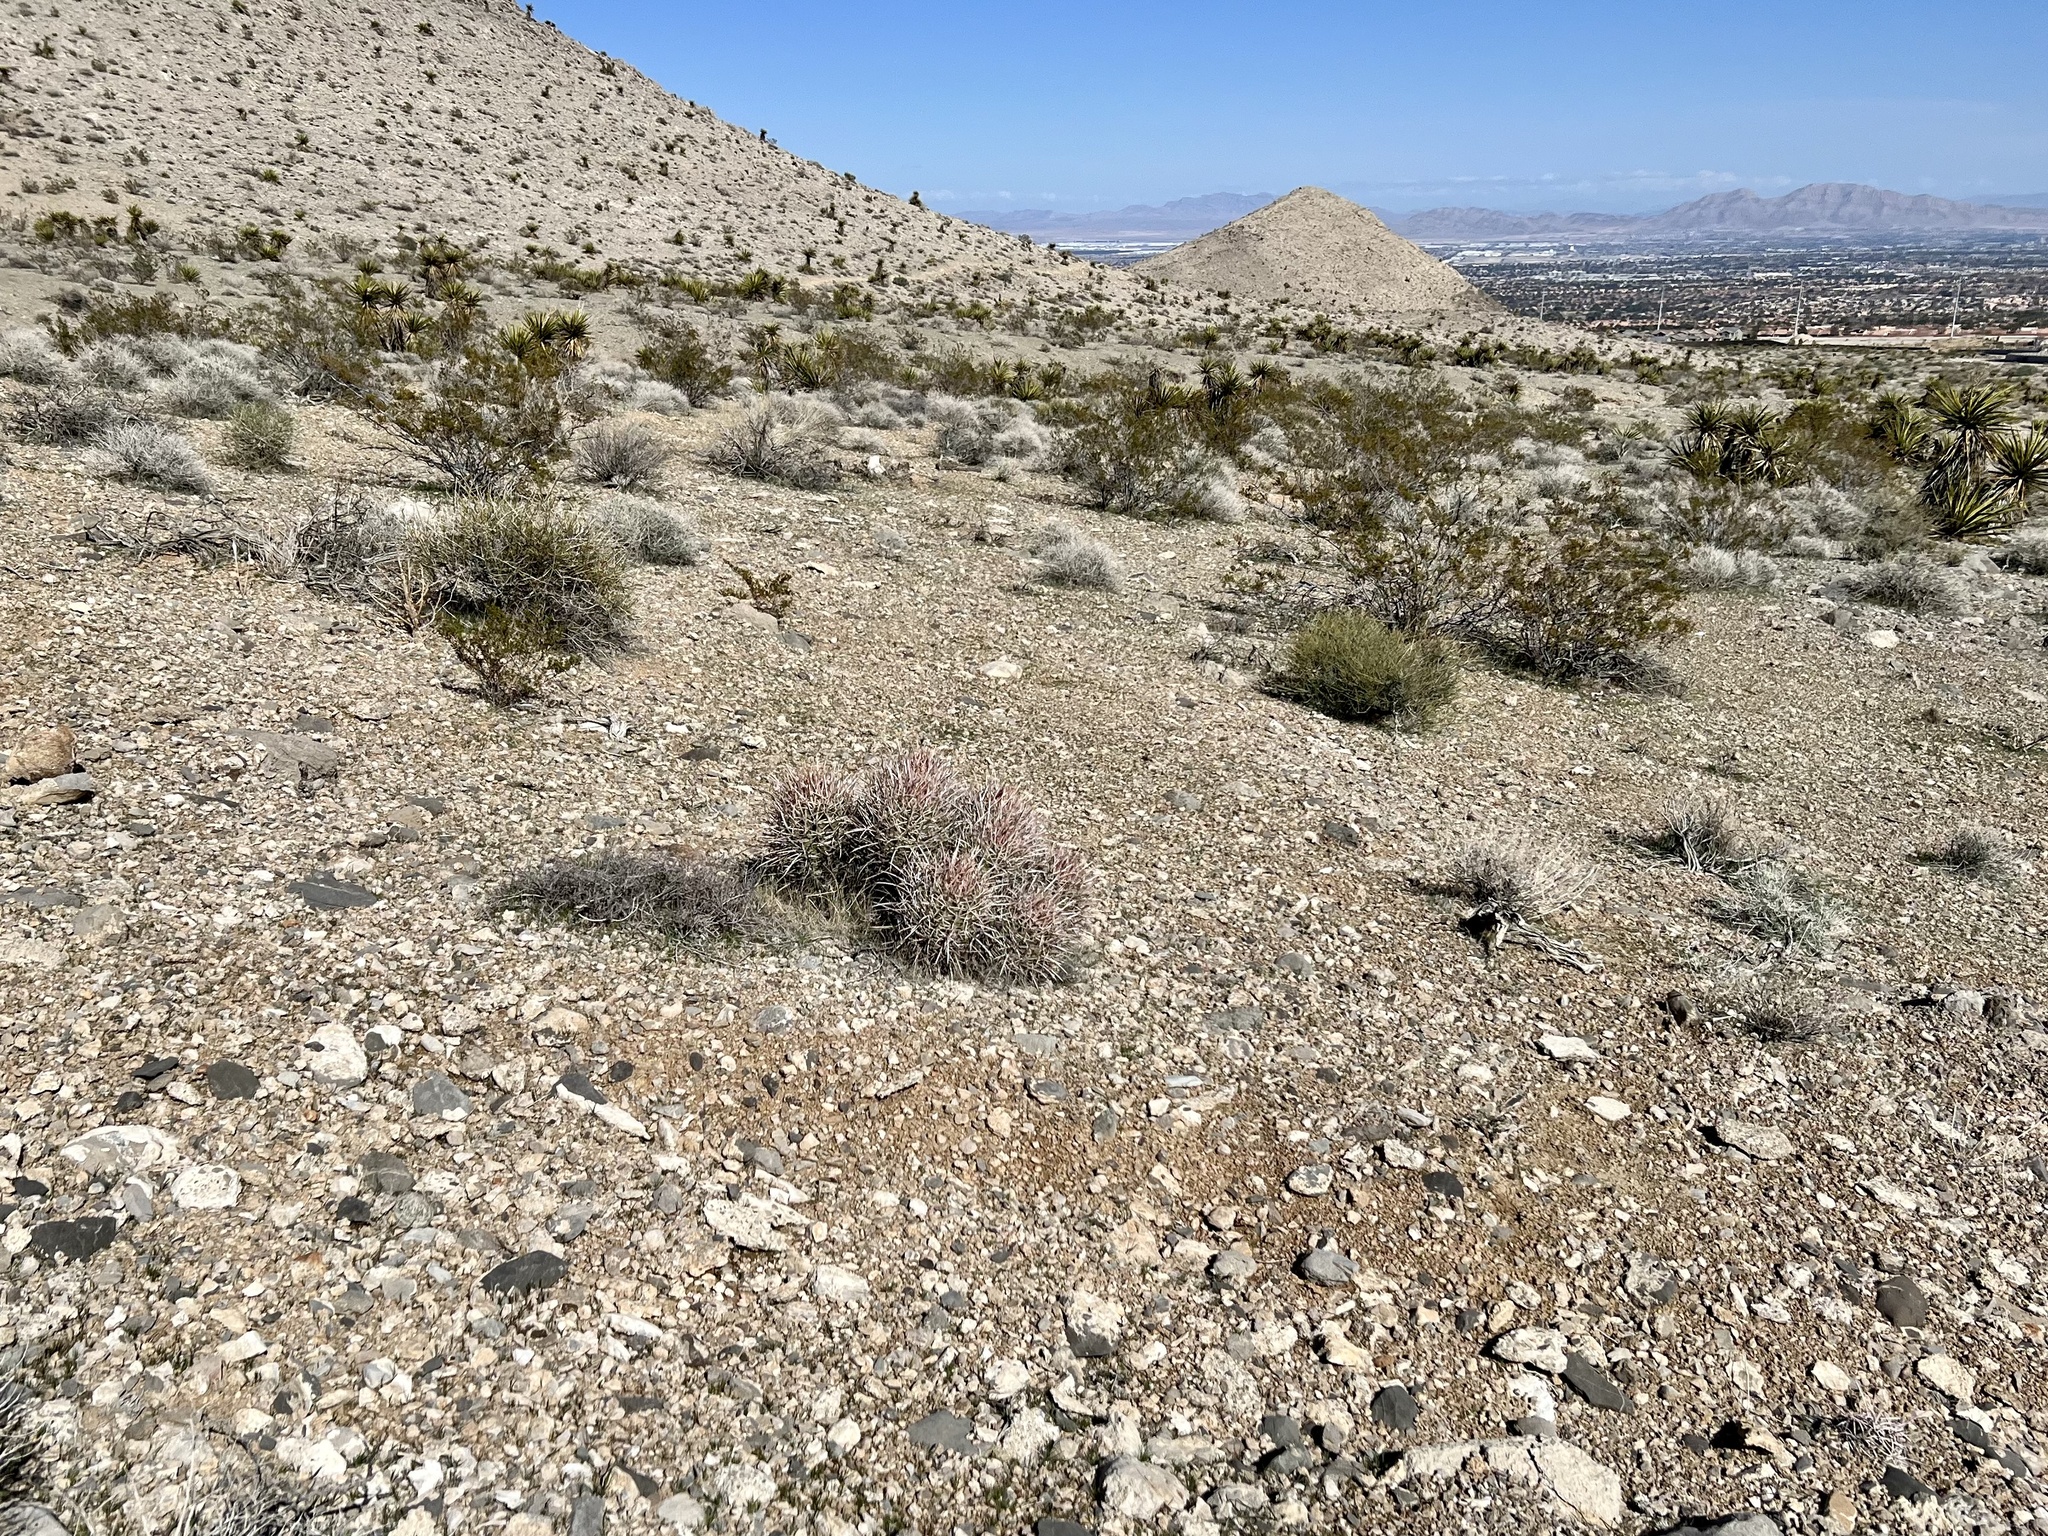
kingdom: Plantae
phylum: Tracheophyta
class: Magnoliopsida
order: Caryophyllales
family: Cactaceae
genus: Echinocactus
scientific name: Echinocactus polycephalus
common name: Cottontop cactus
